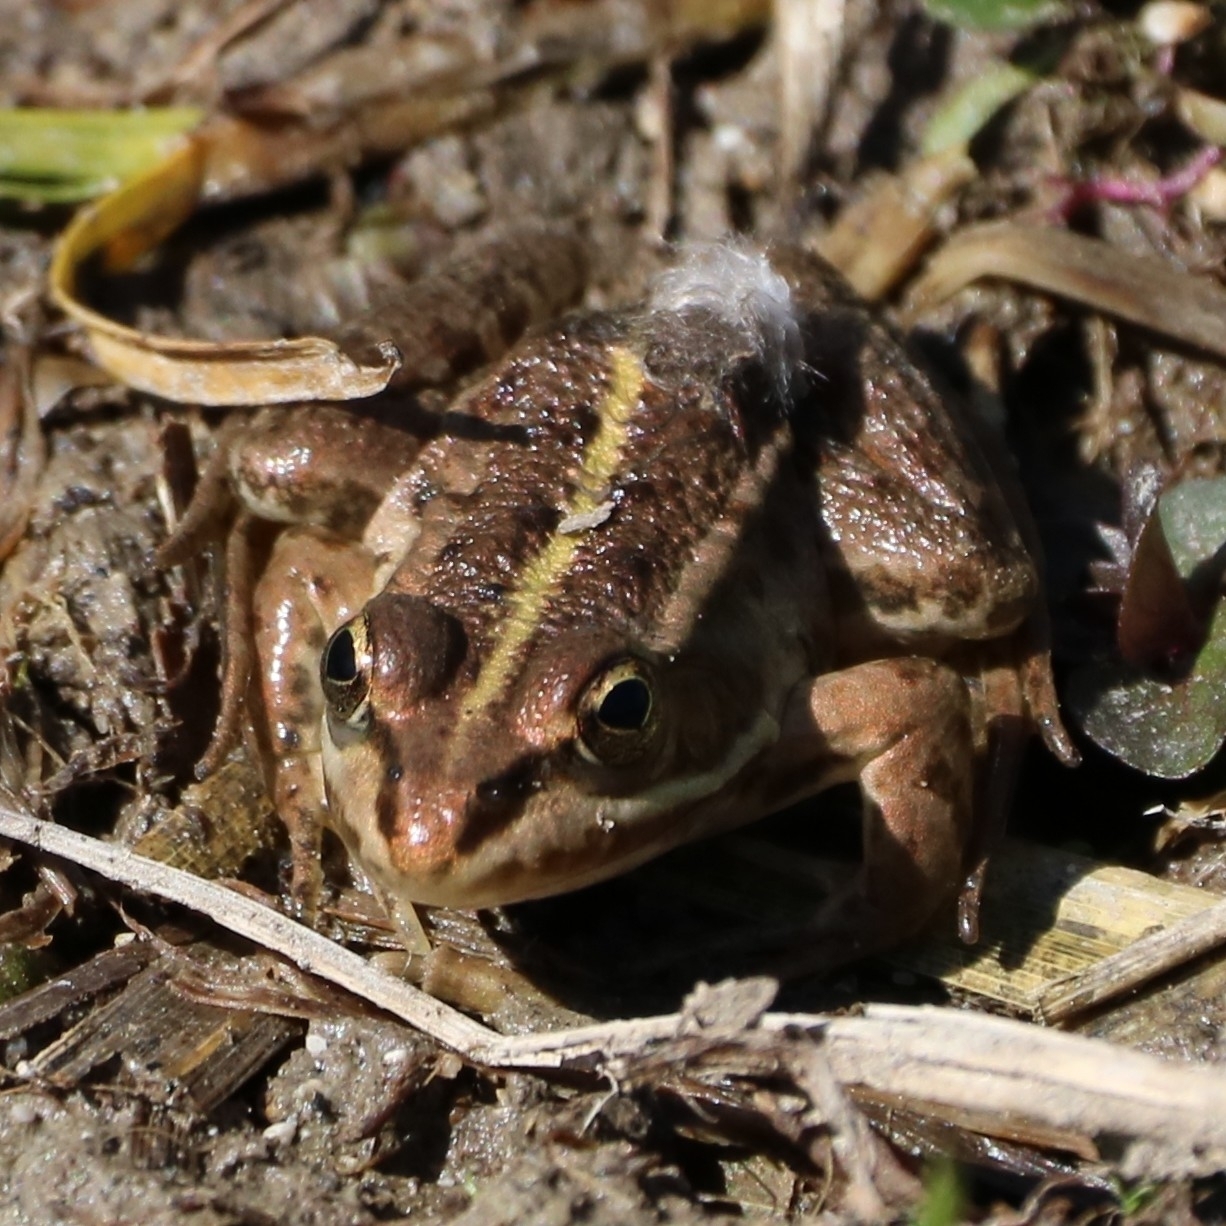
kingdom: Animalia
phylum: Chordata
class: Amphibia
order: Anura
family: Ranidae
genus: Pelophylax
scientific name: Pelophylax
